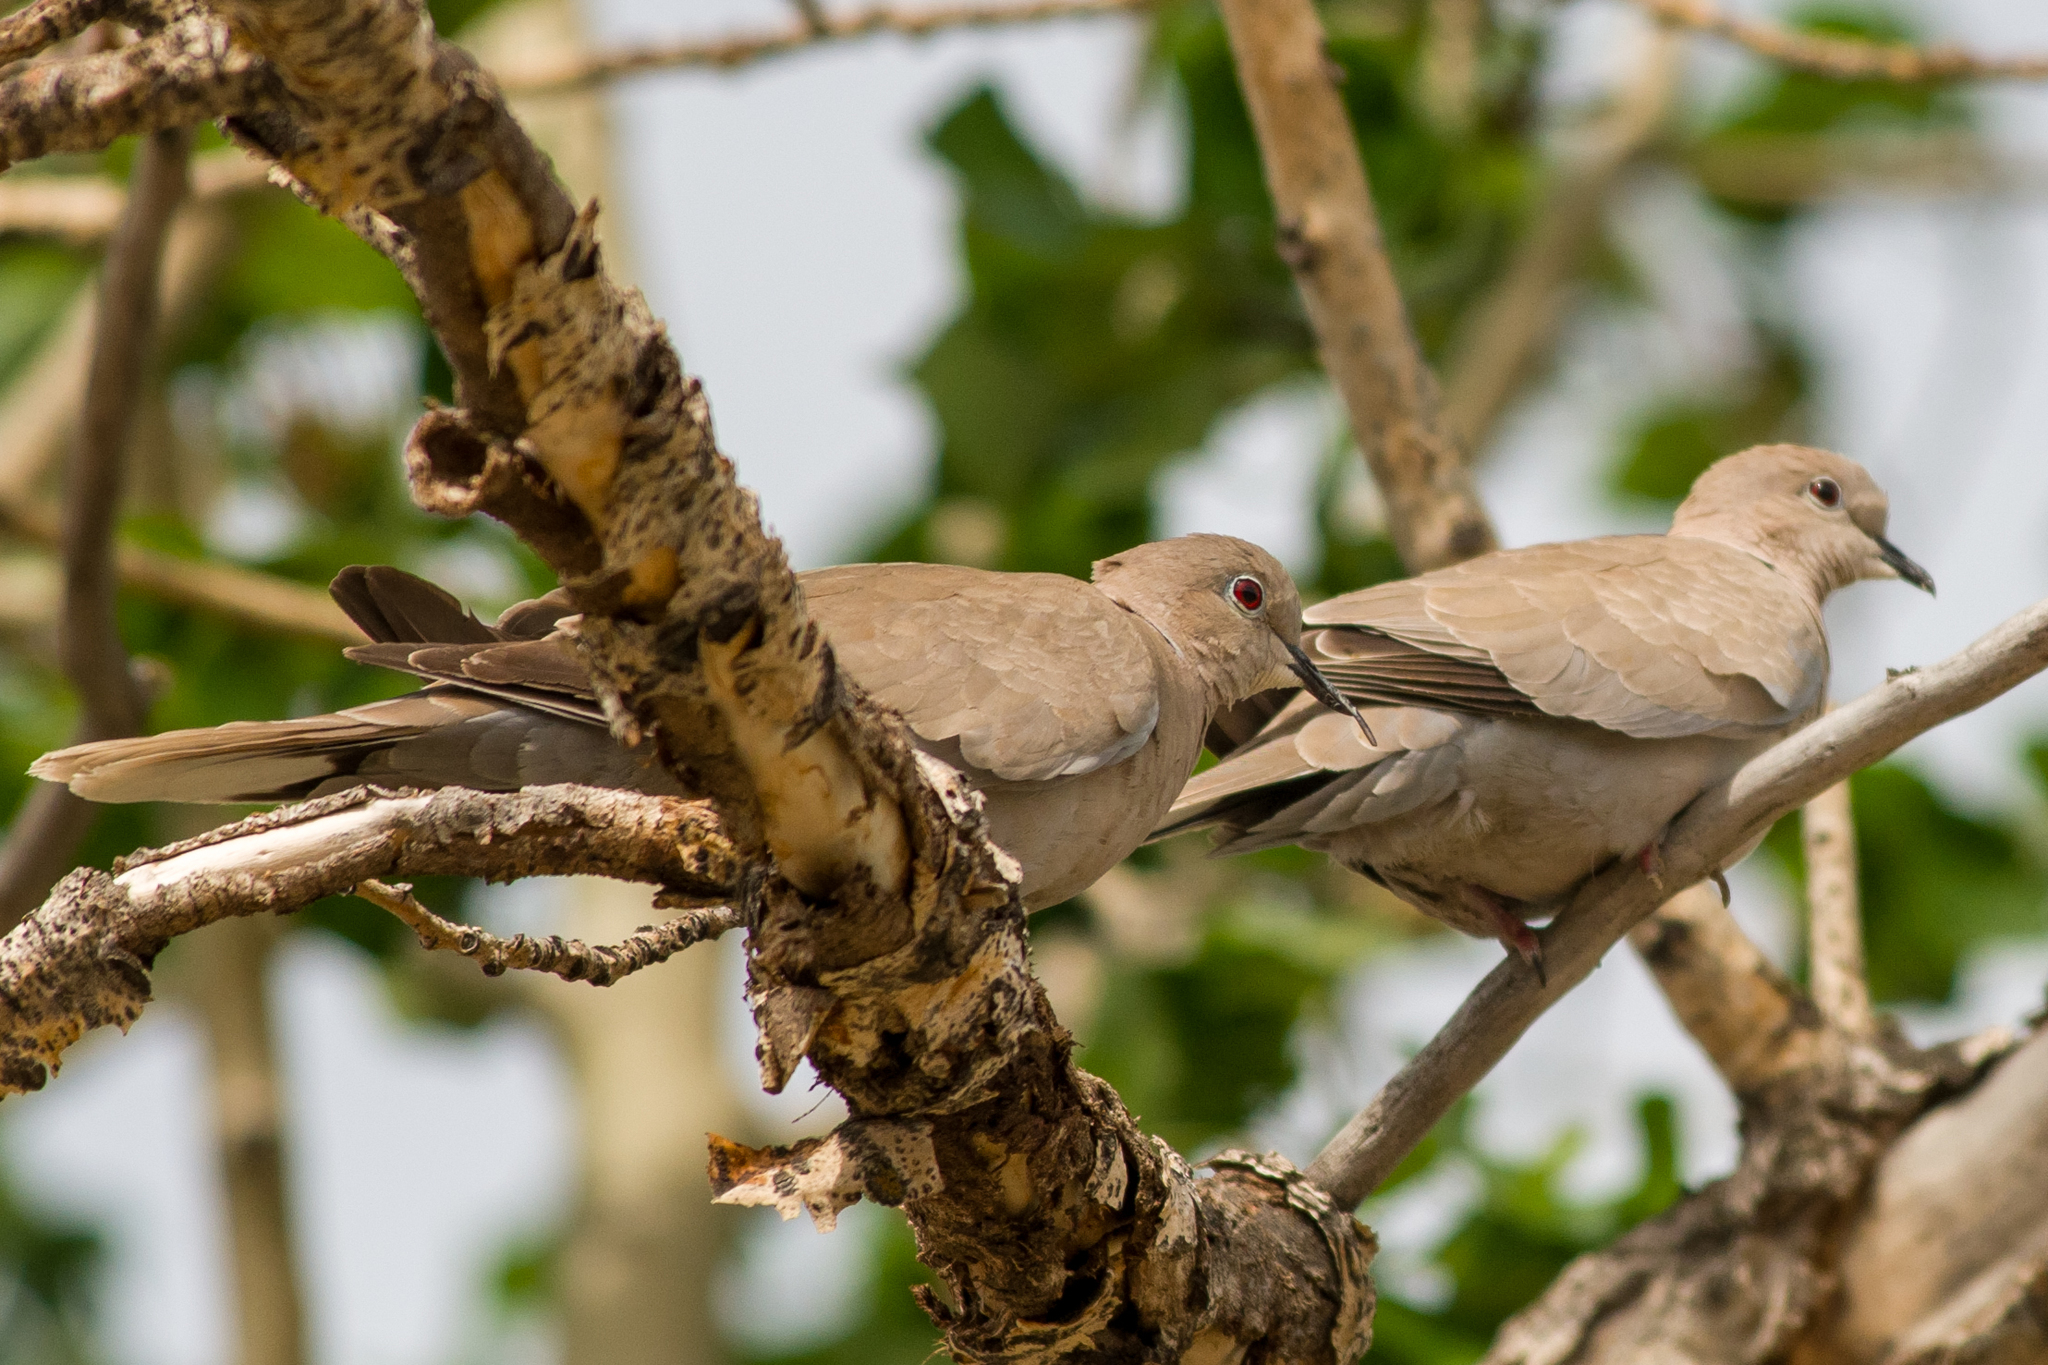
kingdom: Animalia
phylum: Chordata
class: Aves
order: Columbiformes
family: Columbidae
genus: Streptopelia
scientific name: Streptopelia decaocto
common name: Eurasian collared dove
